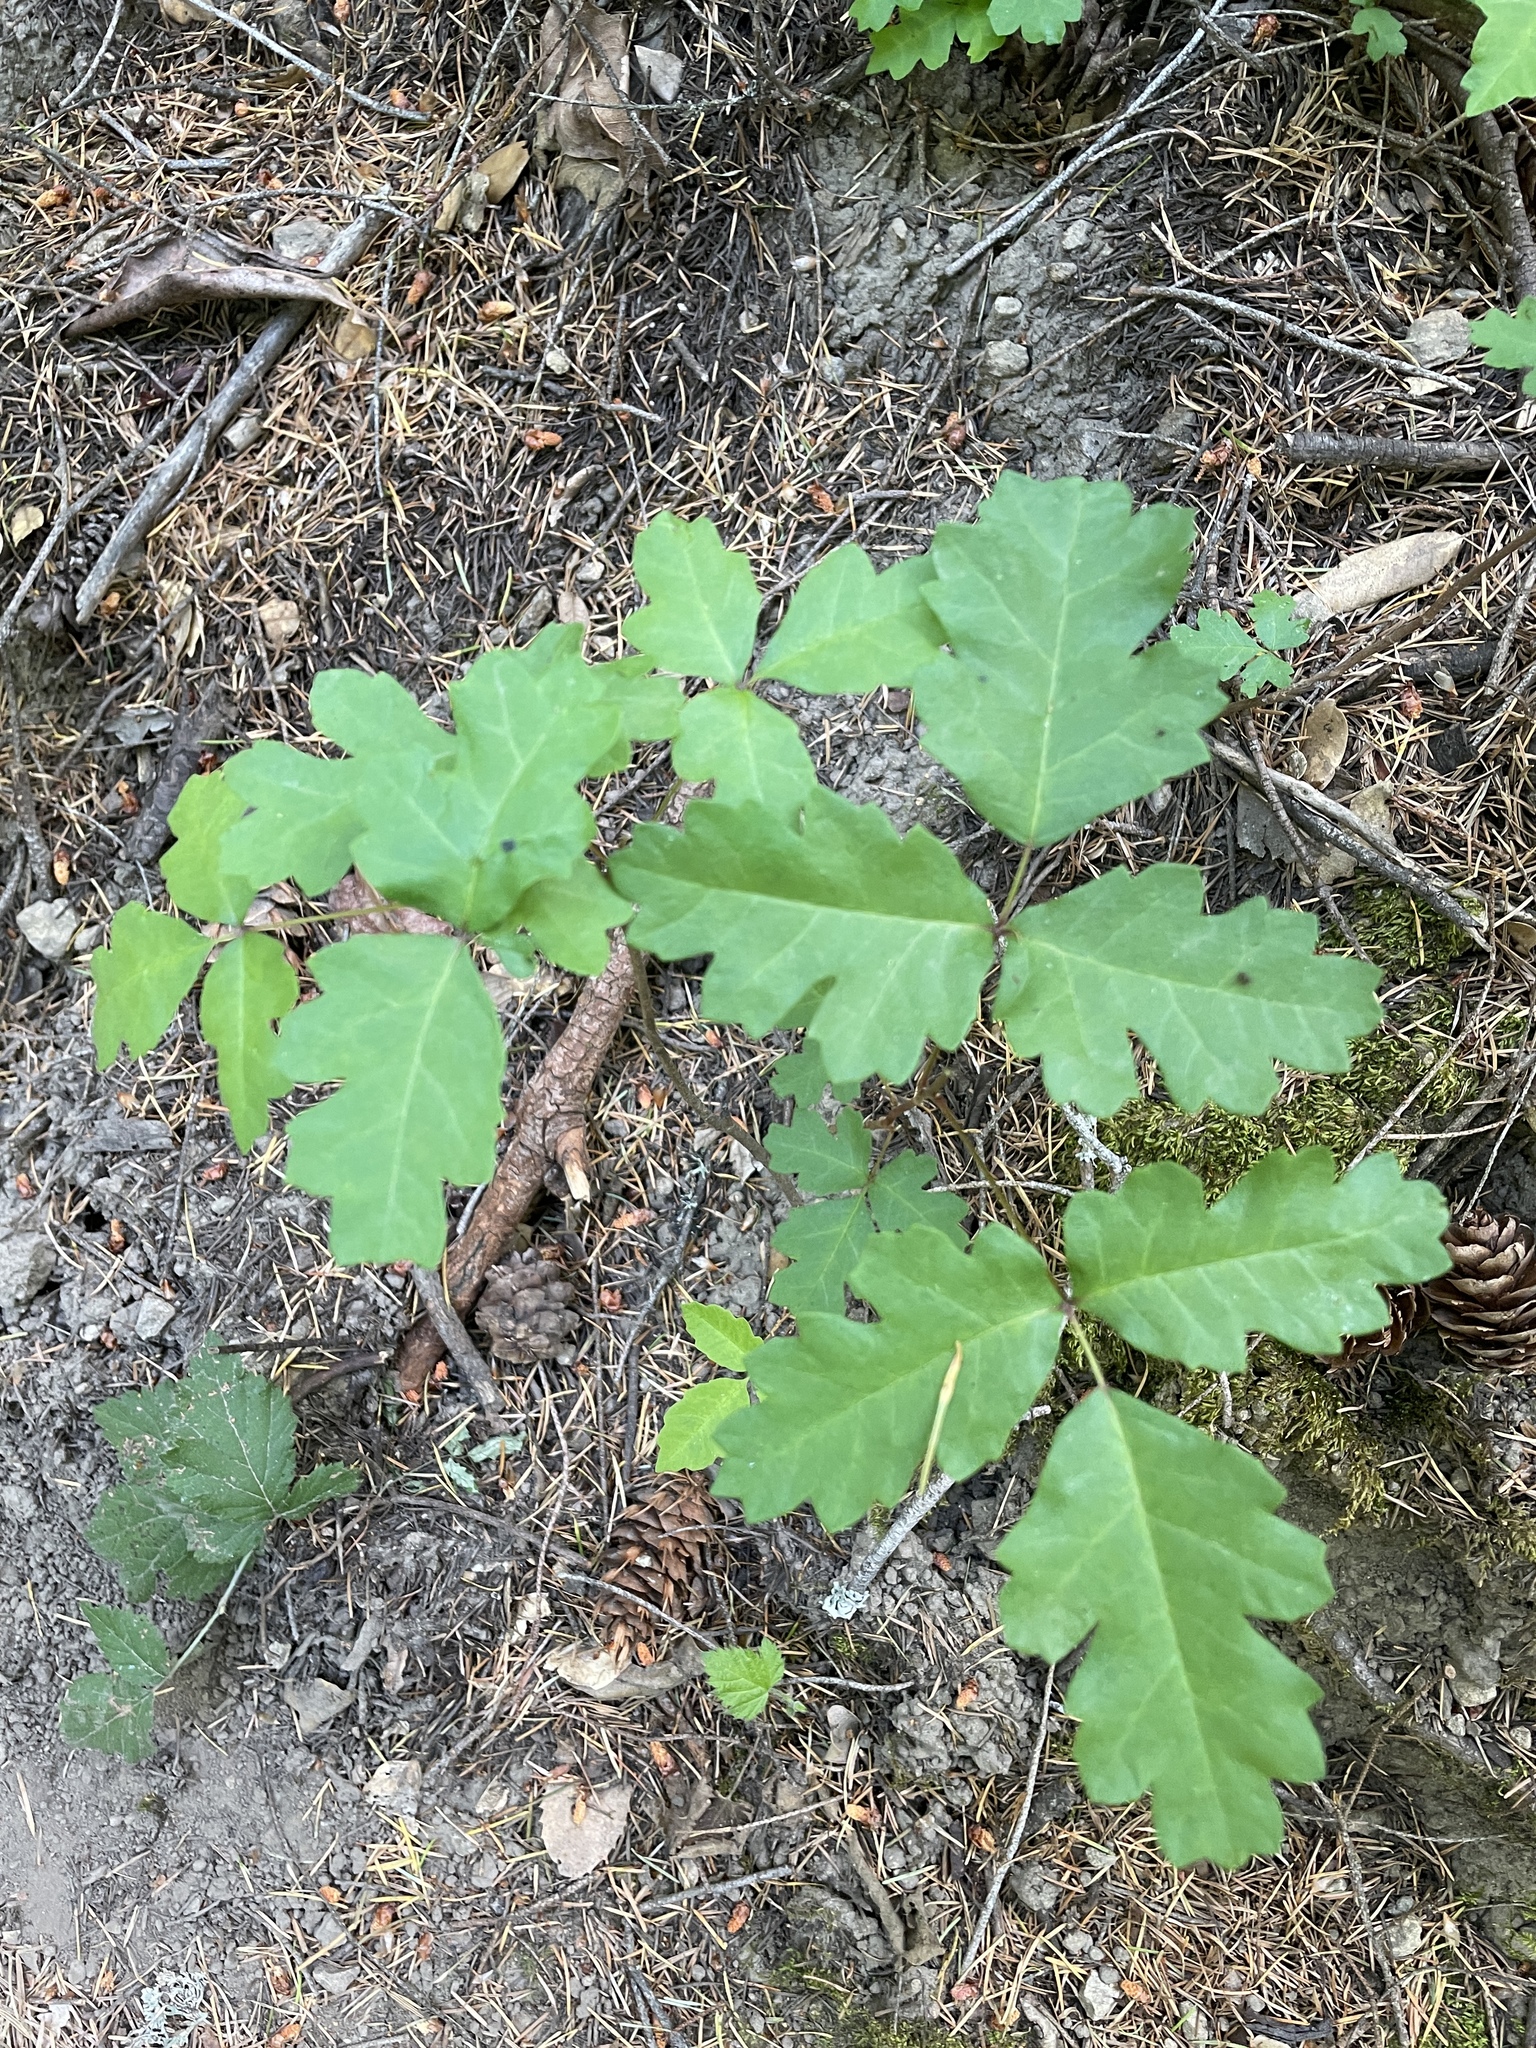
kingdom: Plantae
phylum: Tracheophyta
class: Magnoliopsida
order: Sapindales
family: Anacardiaceae
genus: Toxicodendron
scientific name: Toxicodendron diversilobum
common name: Pacific poison-oak
